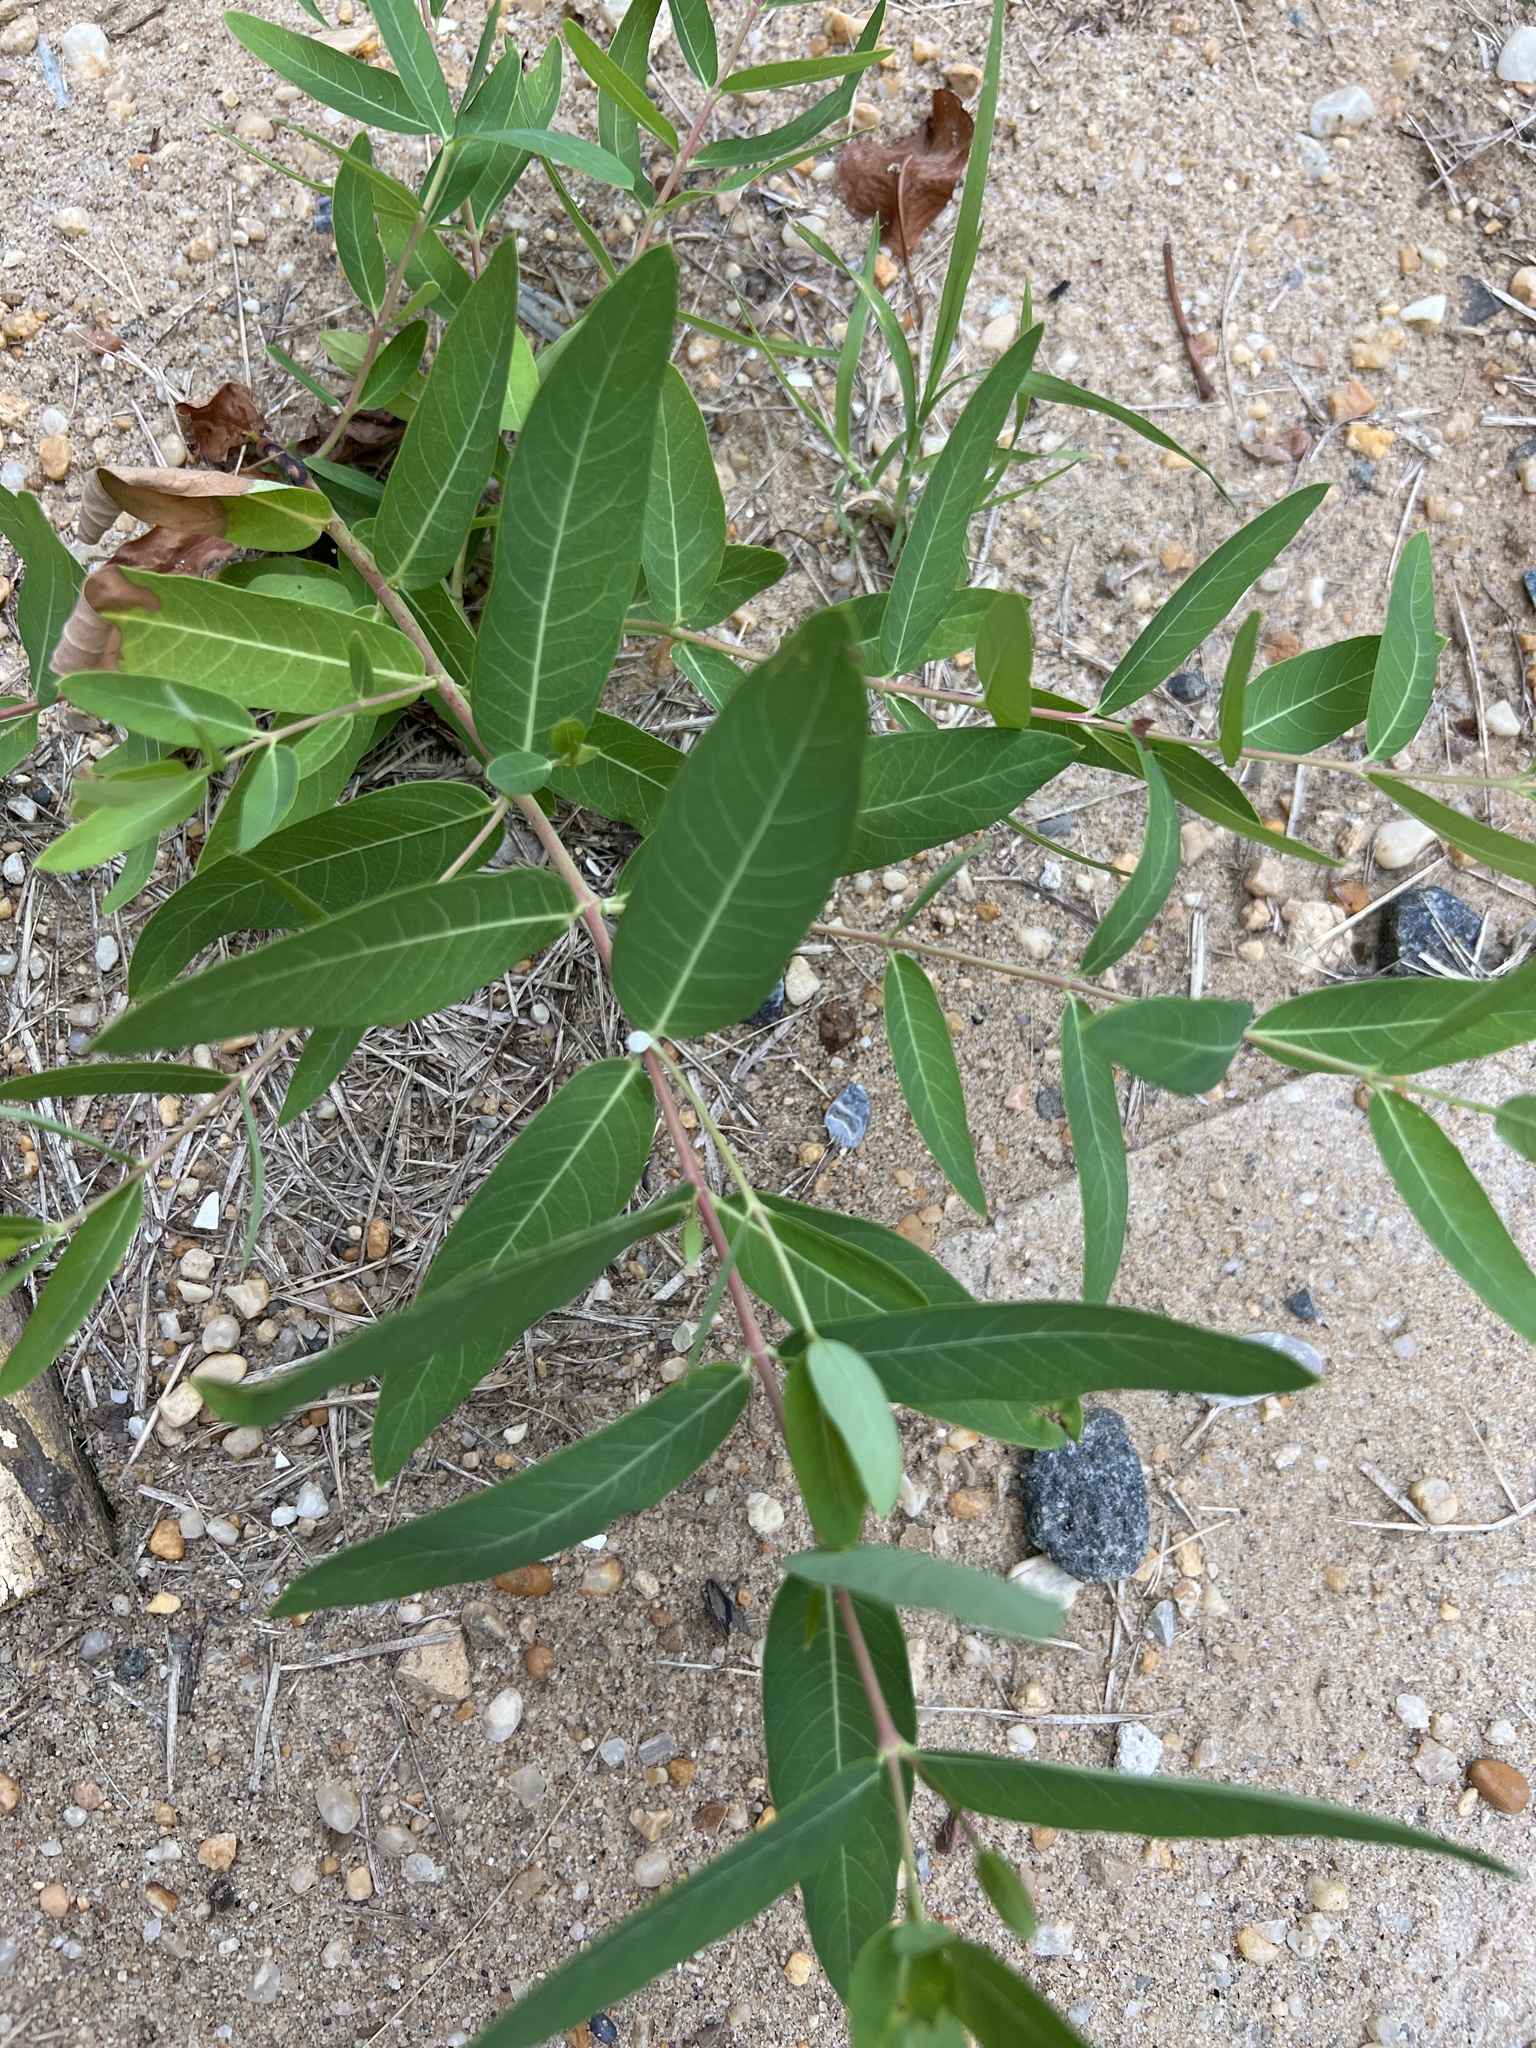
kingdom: Plantae
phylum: Tracheophyta
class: Magnoliopsida
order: Gentianales
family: Apocynaceae
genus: Apocynum
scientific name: Apocynum cannabinum
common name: Hemp dogbane
